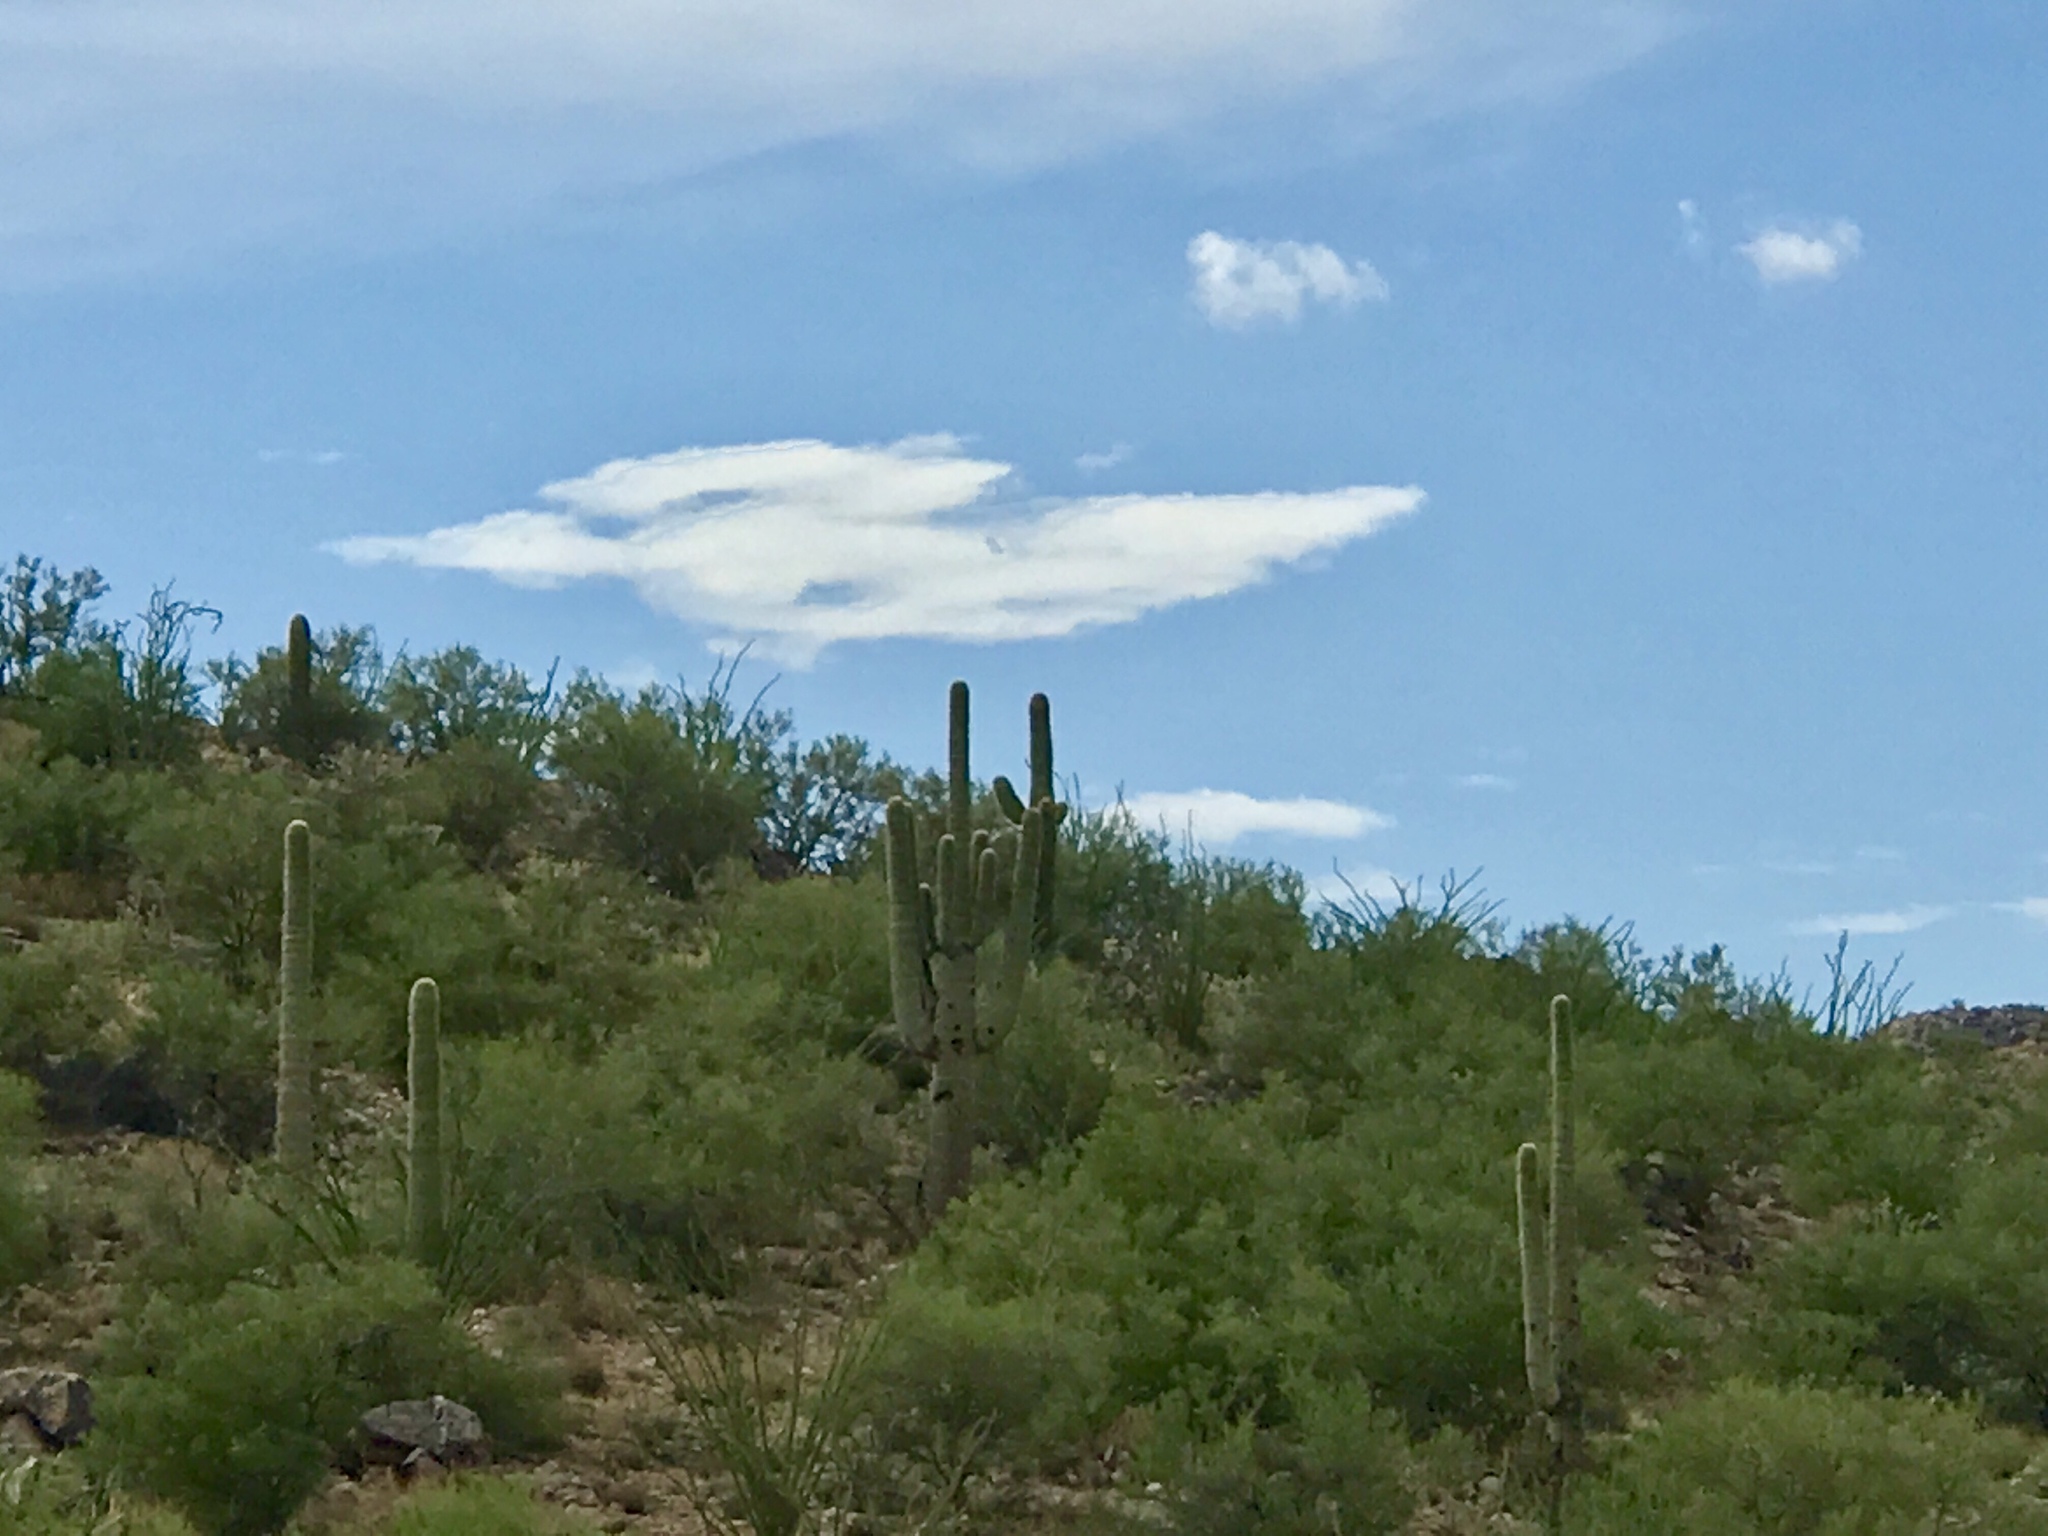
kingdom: Plantae
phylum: Tracheophyta
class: Magnoliopsida
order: Caryophyllales
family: Cactaceae
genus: Carnegiea
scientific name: Carnegiea gigantea
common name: Saguaro
